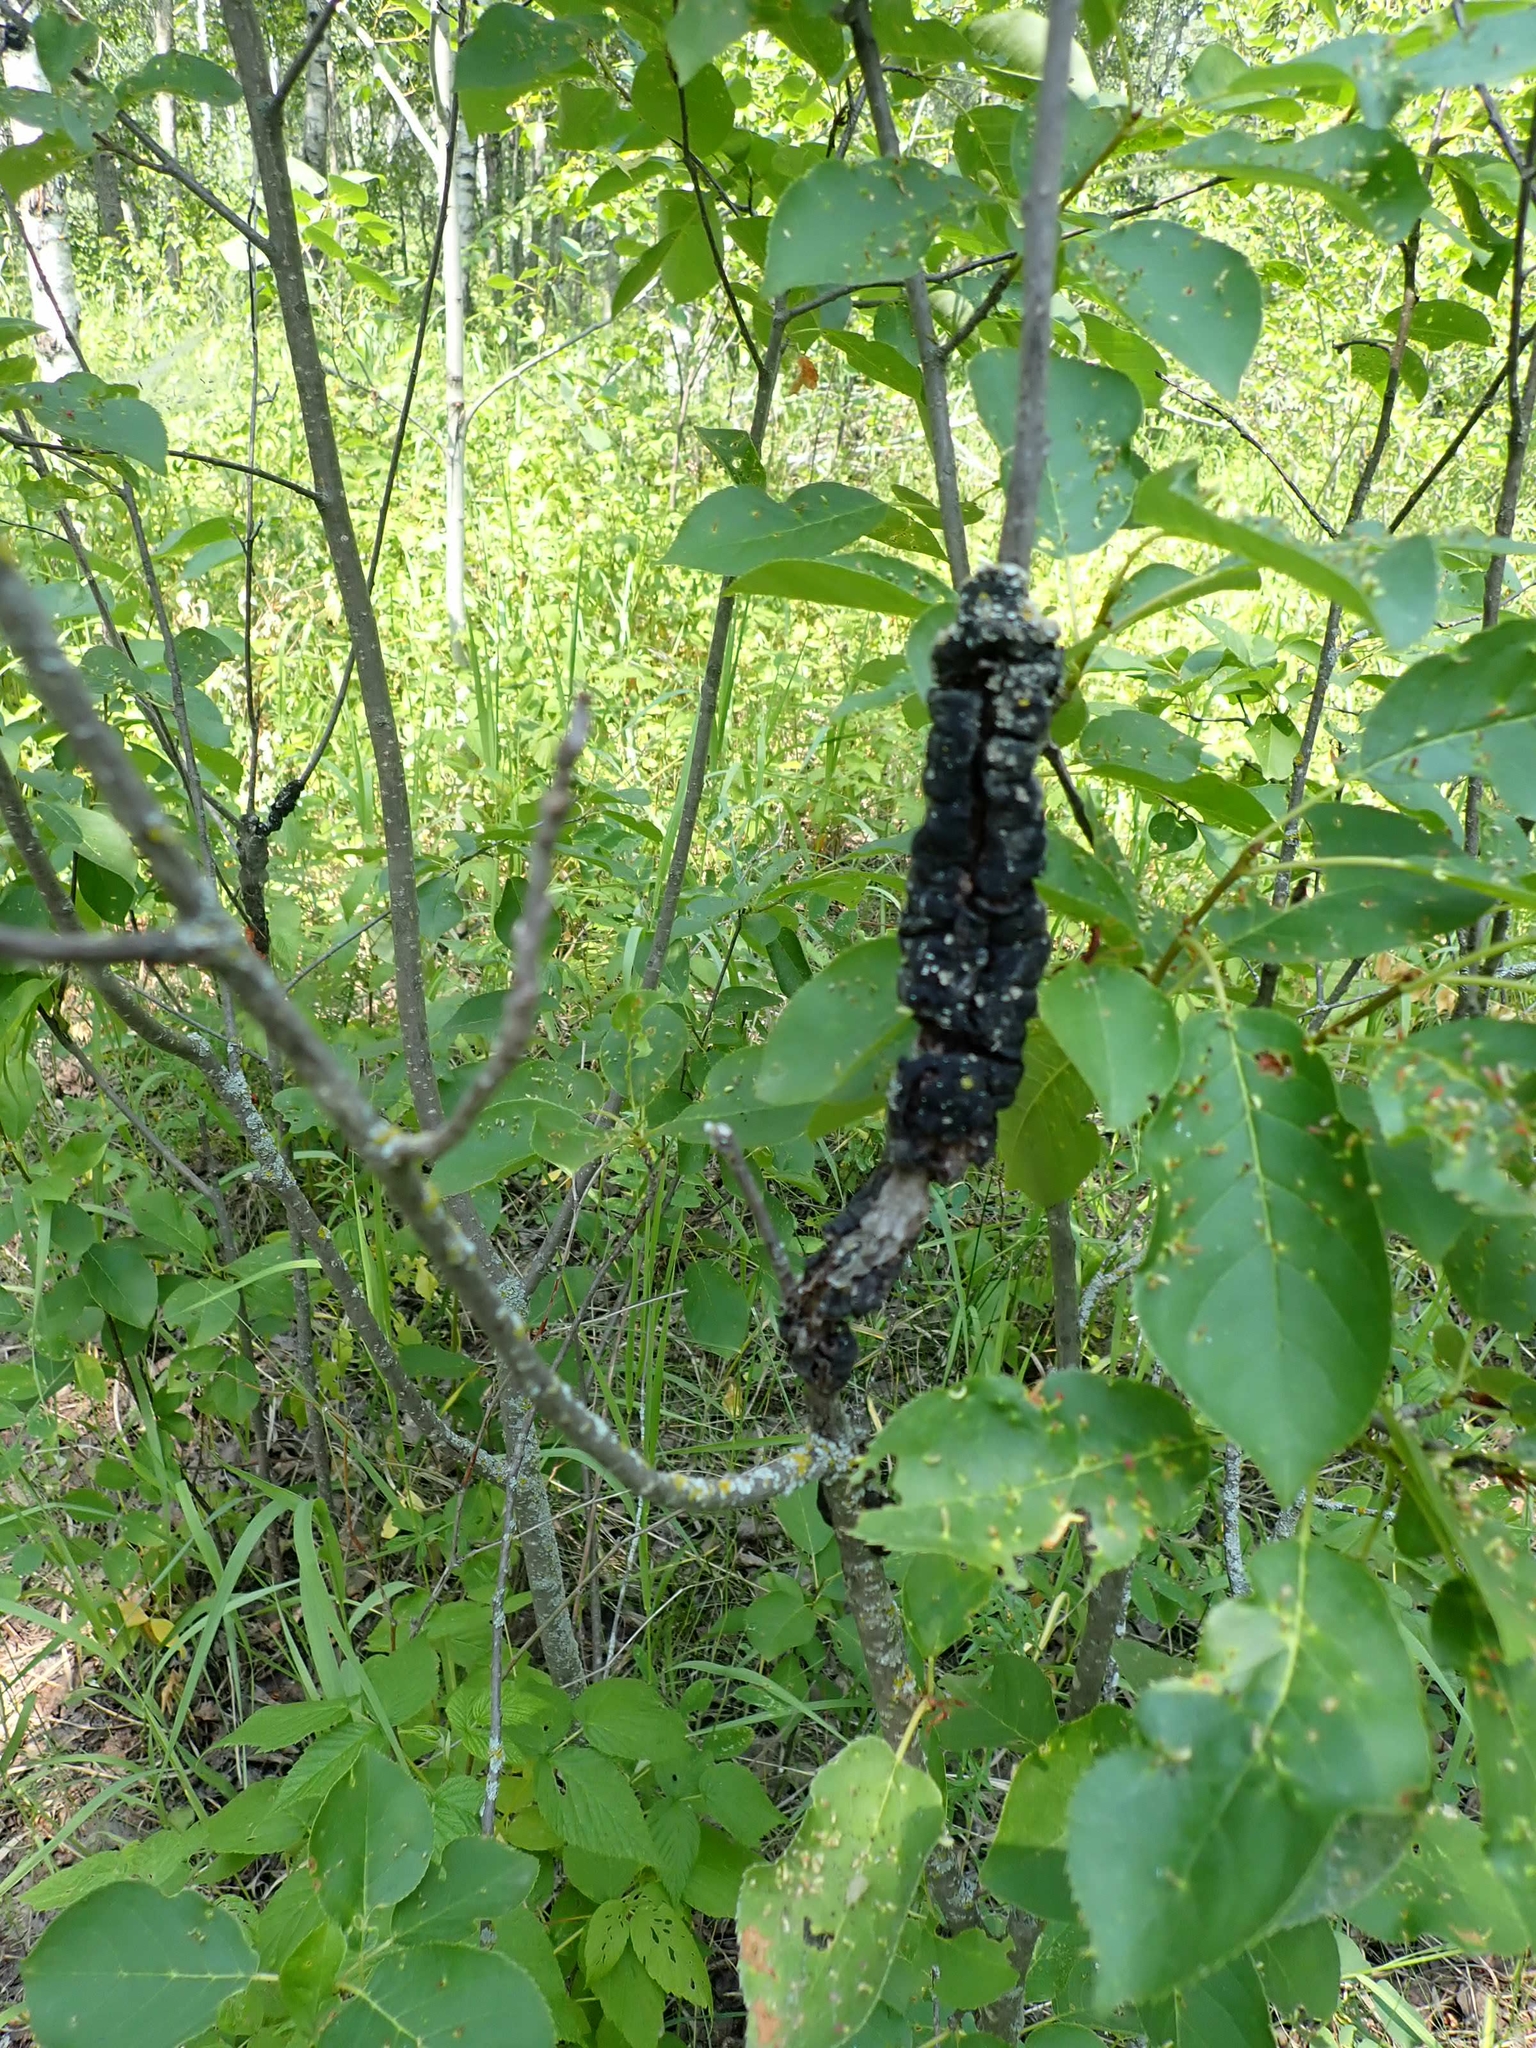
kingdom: Fungi
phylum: Ascomycota
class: Dothideomycetes
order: Venturiales
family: Venturiaceae
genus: Apiosporina
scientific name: Apiosporina morbosa
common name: Black knot
